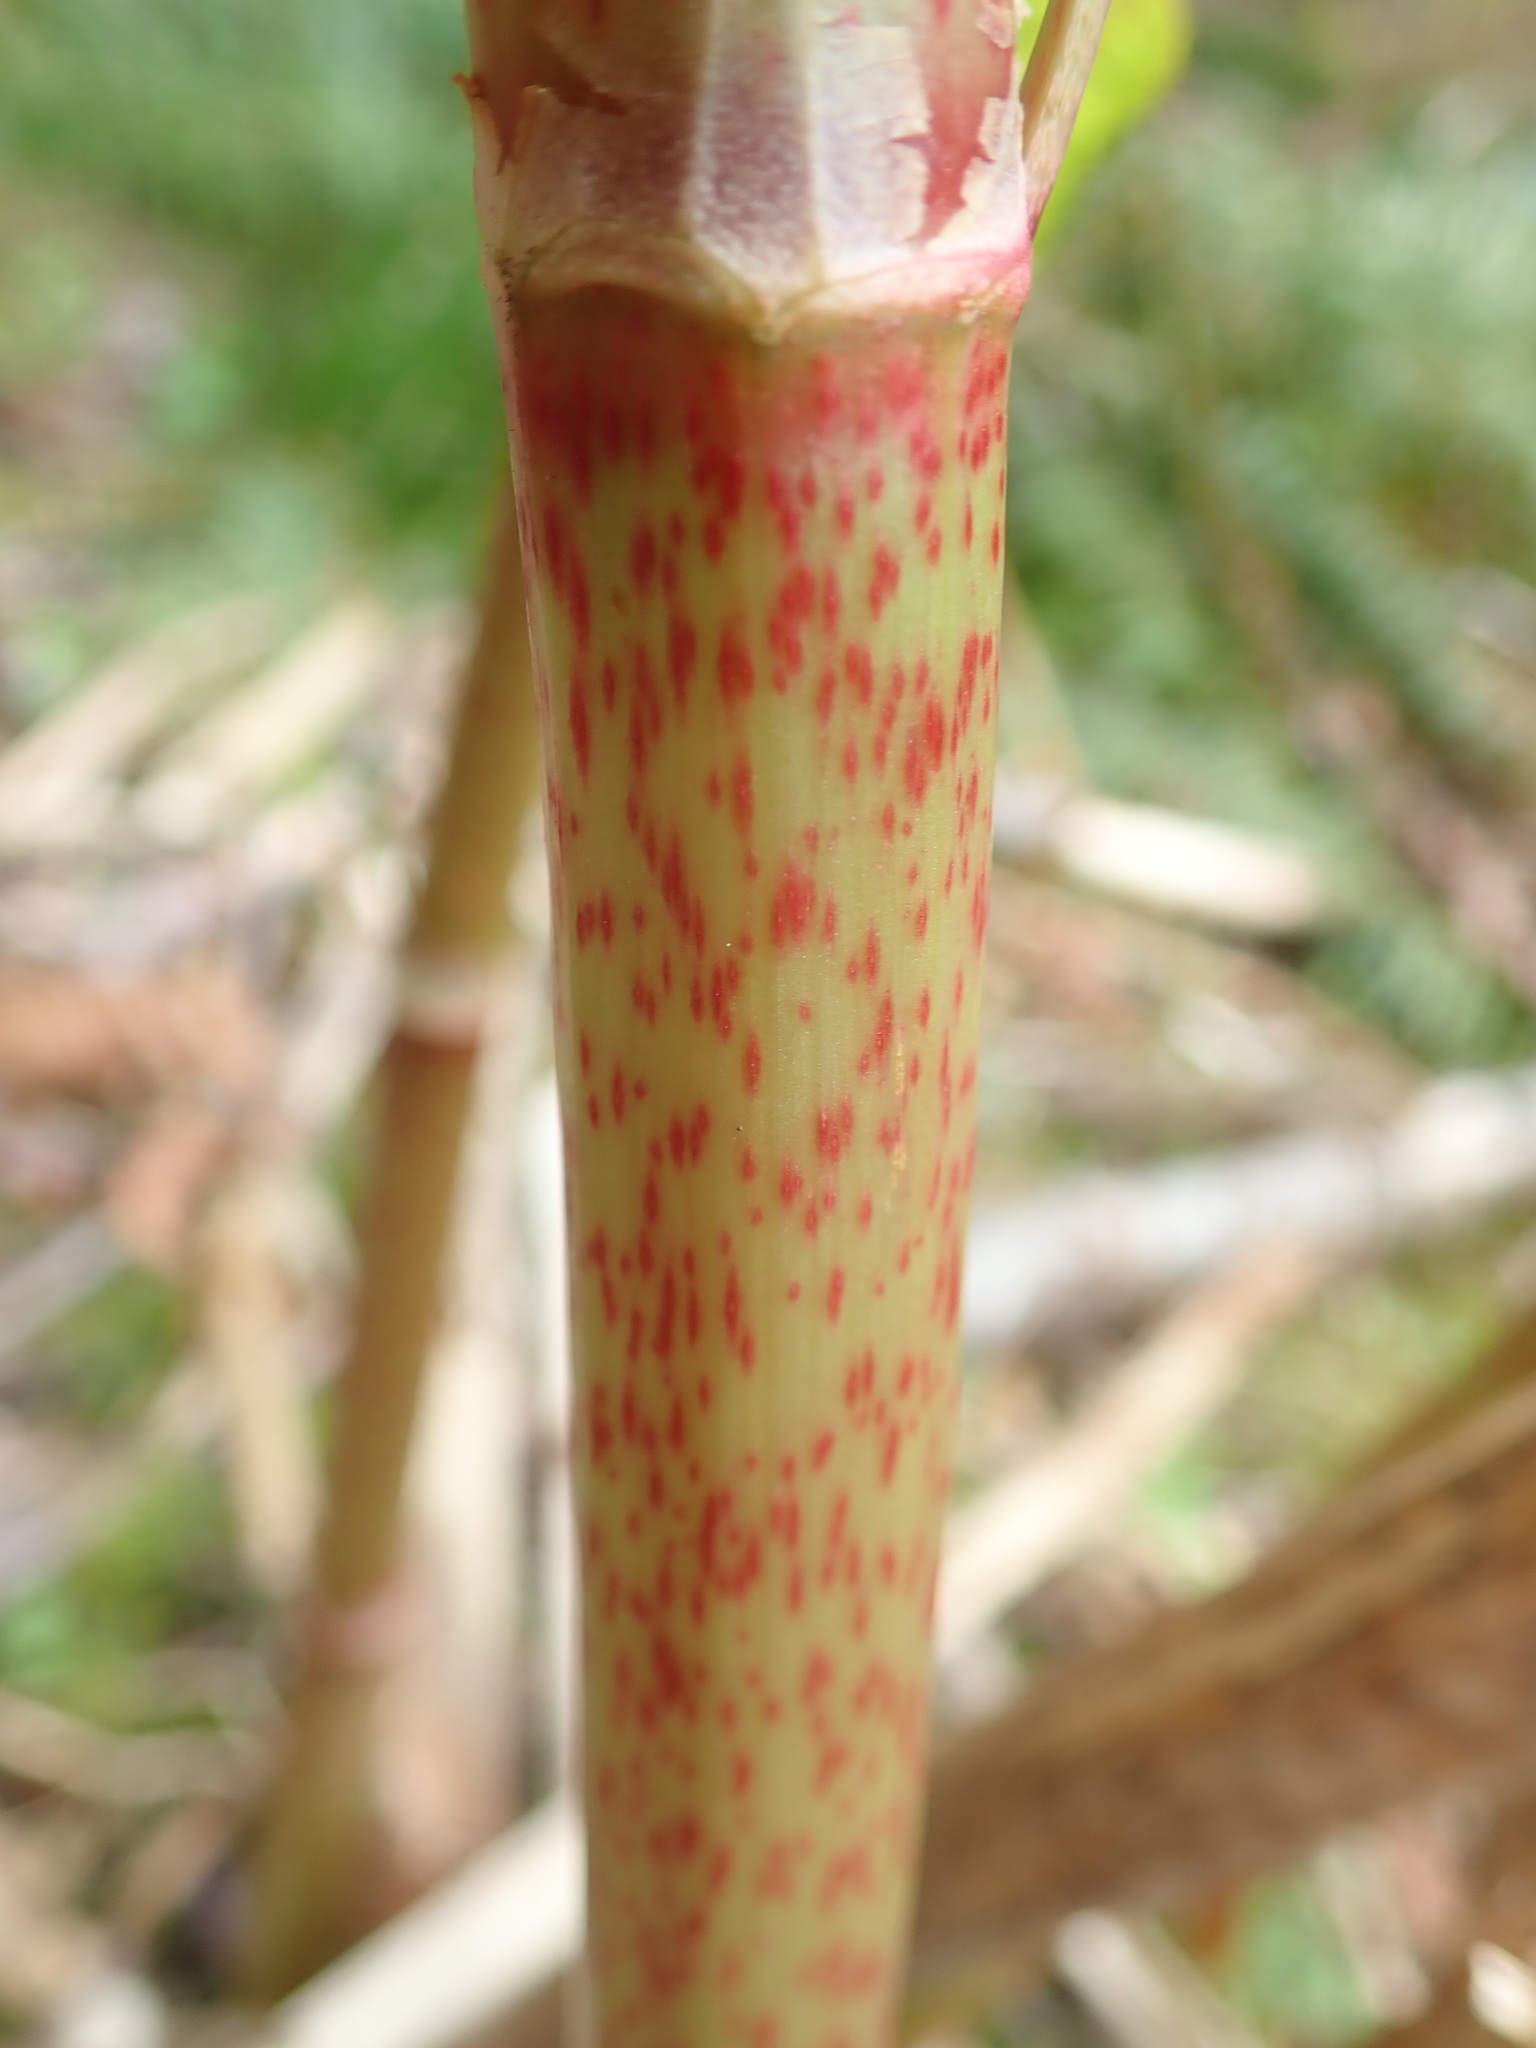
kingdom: Plantae
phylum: Tracheophyta
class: Magnoliopsida
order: Caryophyllales
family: Polygonaceae
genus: Reynoutria
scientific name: Reynoutria japonica
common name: Japanese knotweed
